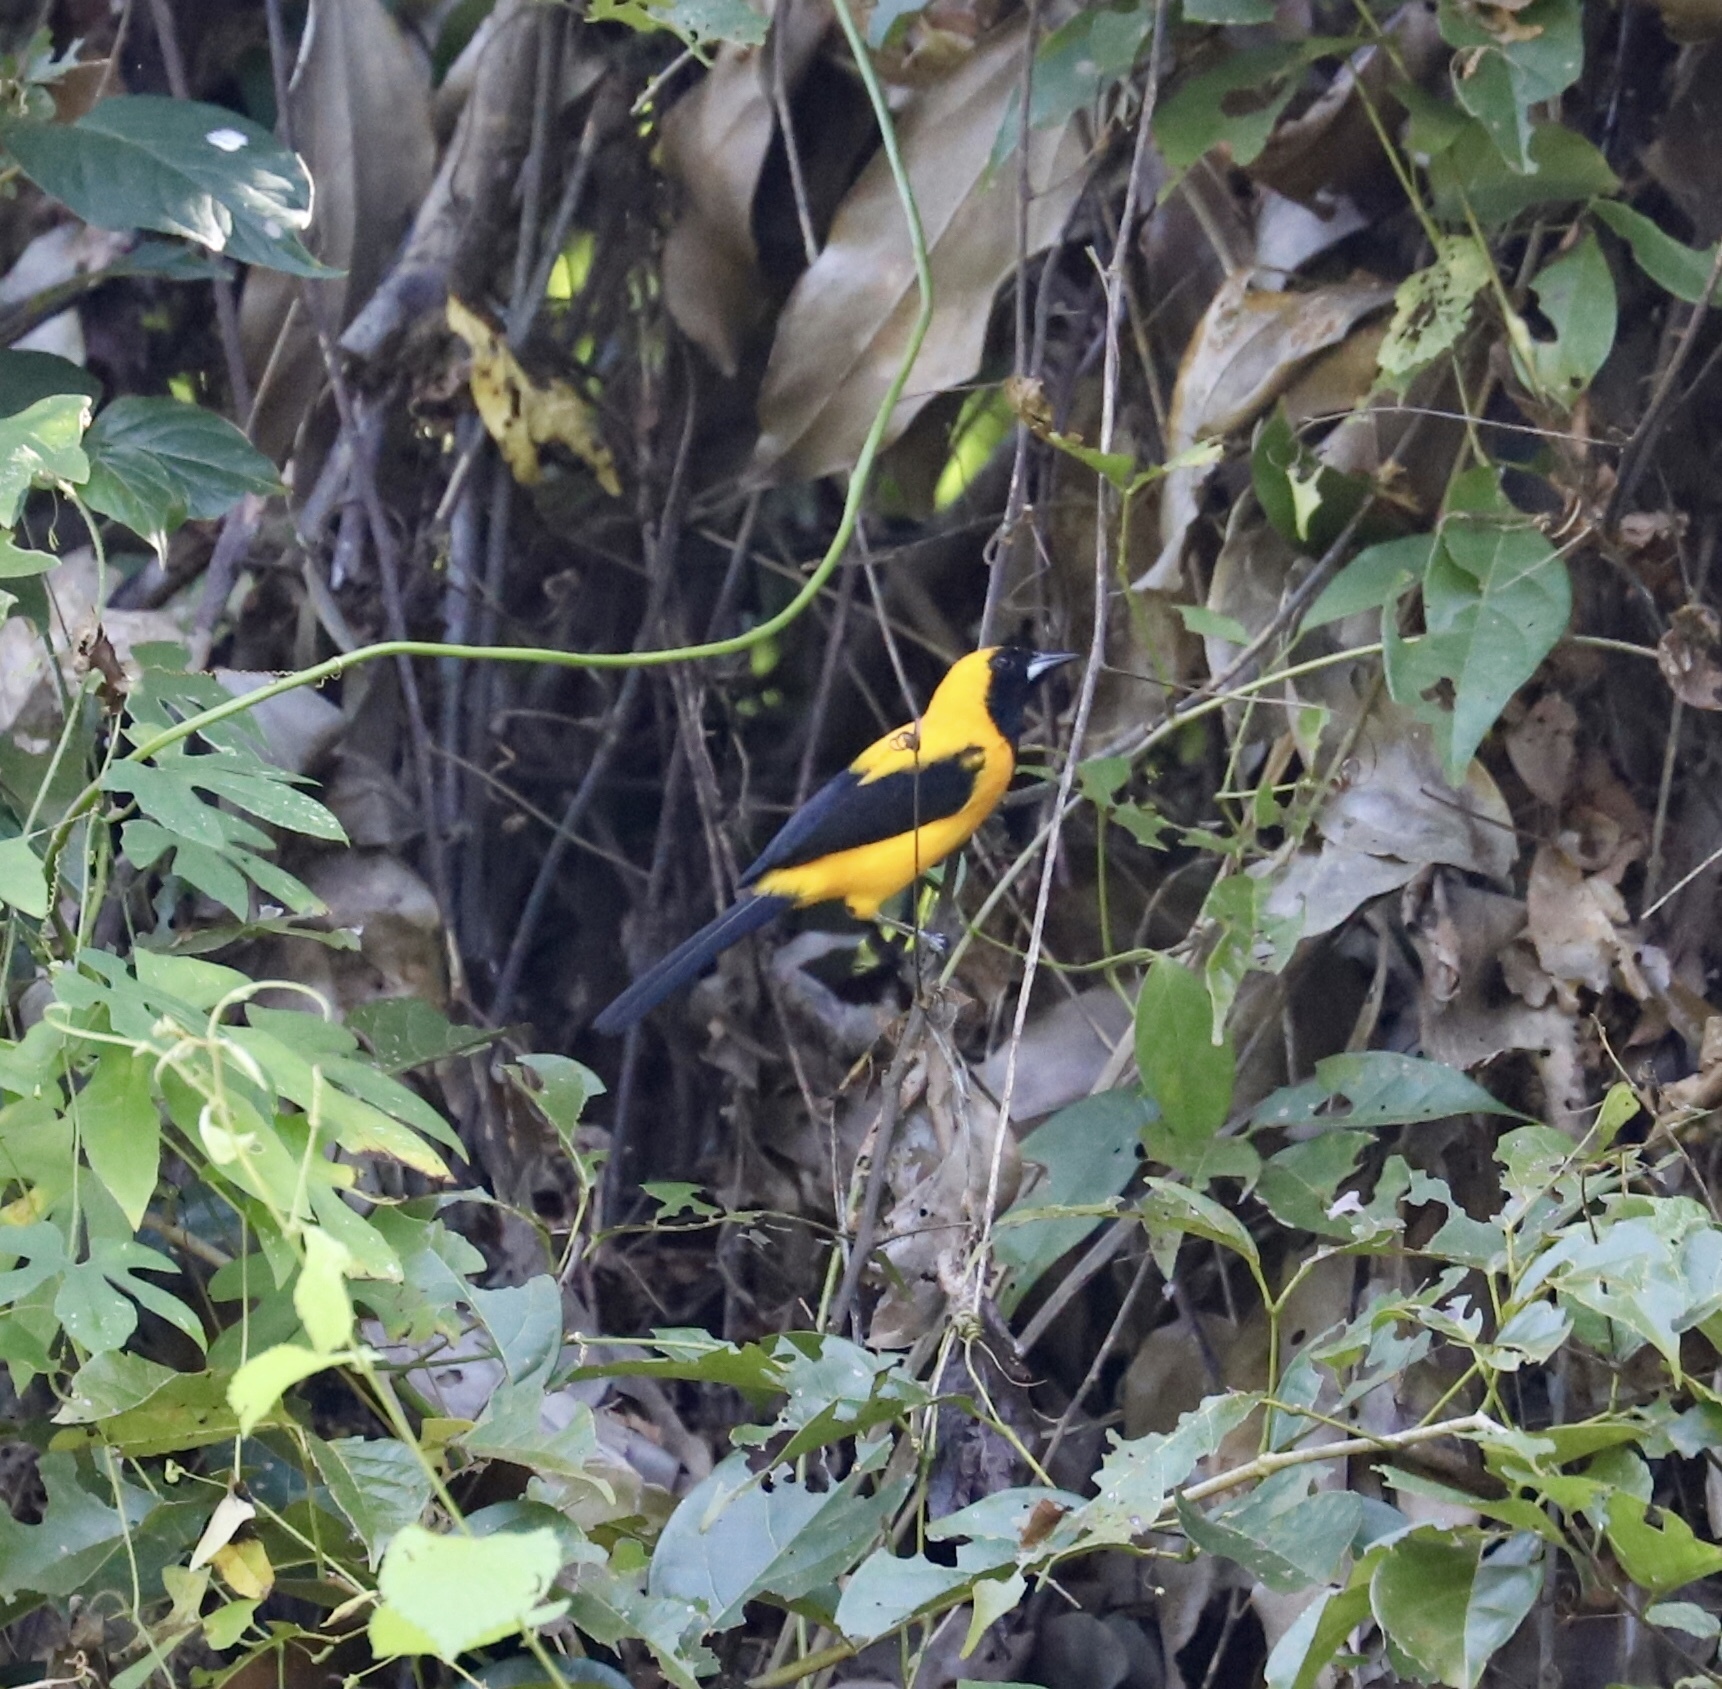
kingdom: Animalia
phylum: Chordata
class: Aves
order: Passeriformes
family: Icteridae
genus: Icterus
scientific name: Icterus chrysater
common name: Yellow-backed oriole
